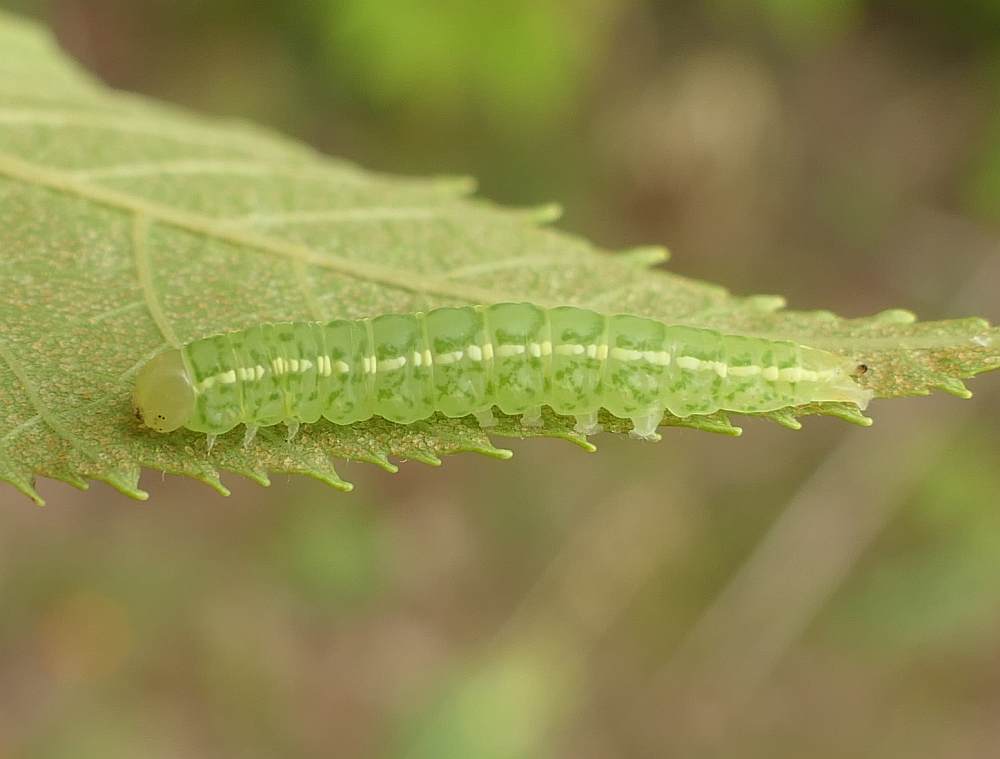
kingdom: Animalia
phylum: Arthropoda
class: Insecta
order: Lepidoptera
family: Nolidae
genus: Baileya
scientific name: Baileya dormitans
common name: Sleeping baileya moth
